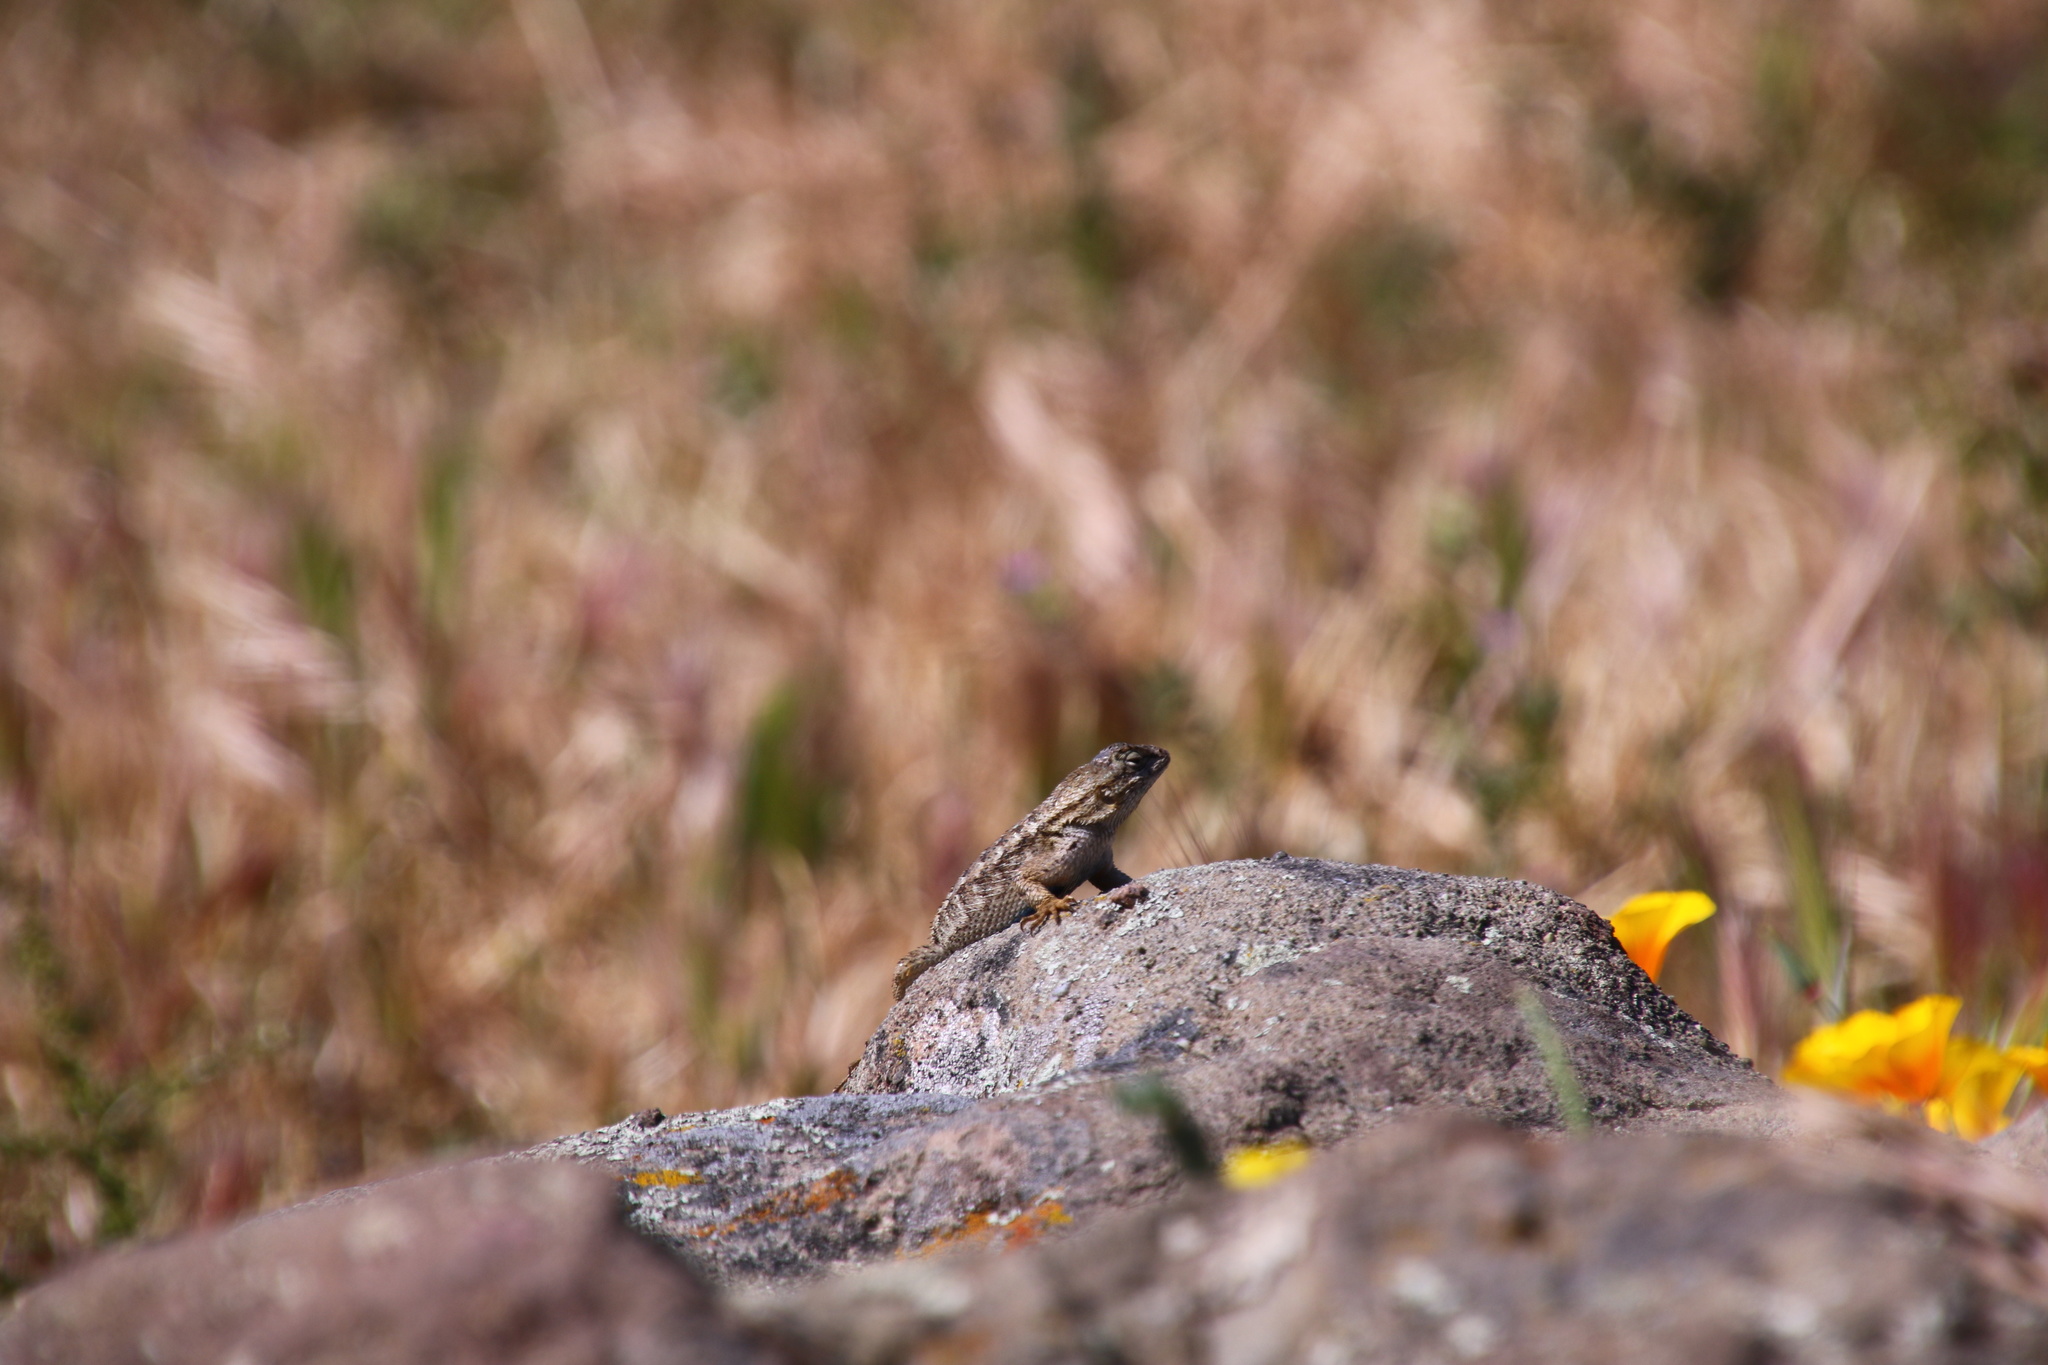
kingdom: Animalia
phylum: Chordata
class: Squamata
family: Phrynosomatidae
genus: Sceloporus
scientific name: Sceloporus occidentalis
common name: Western fence lizard
